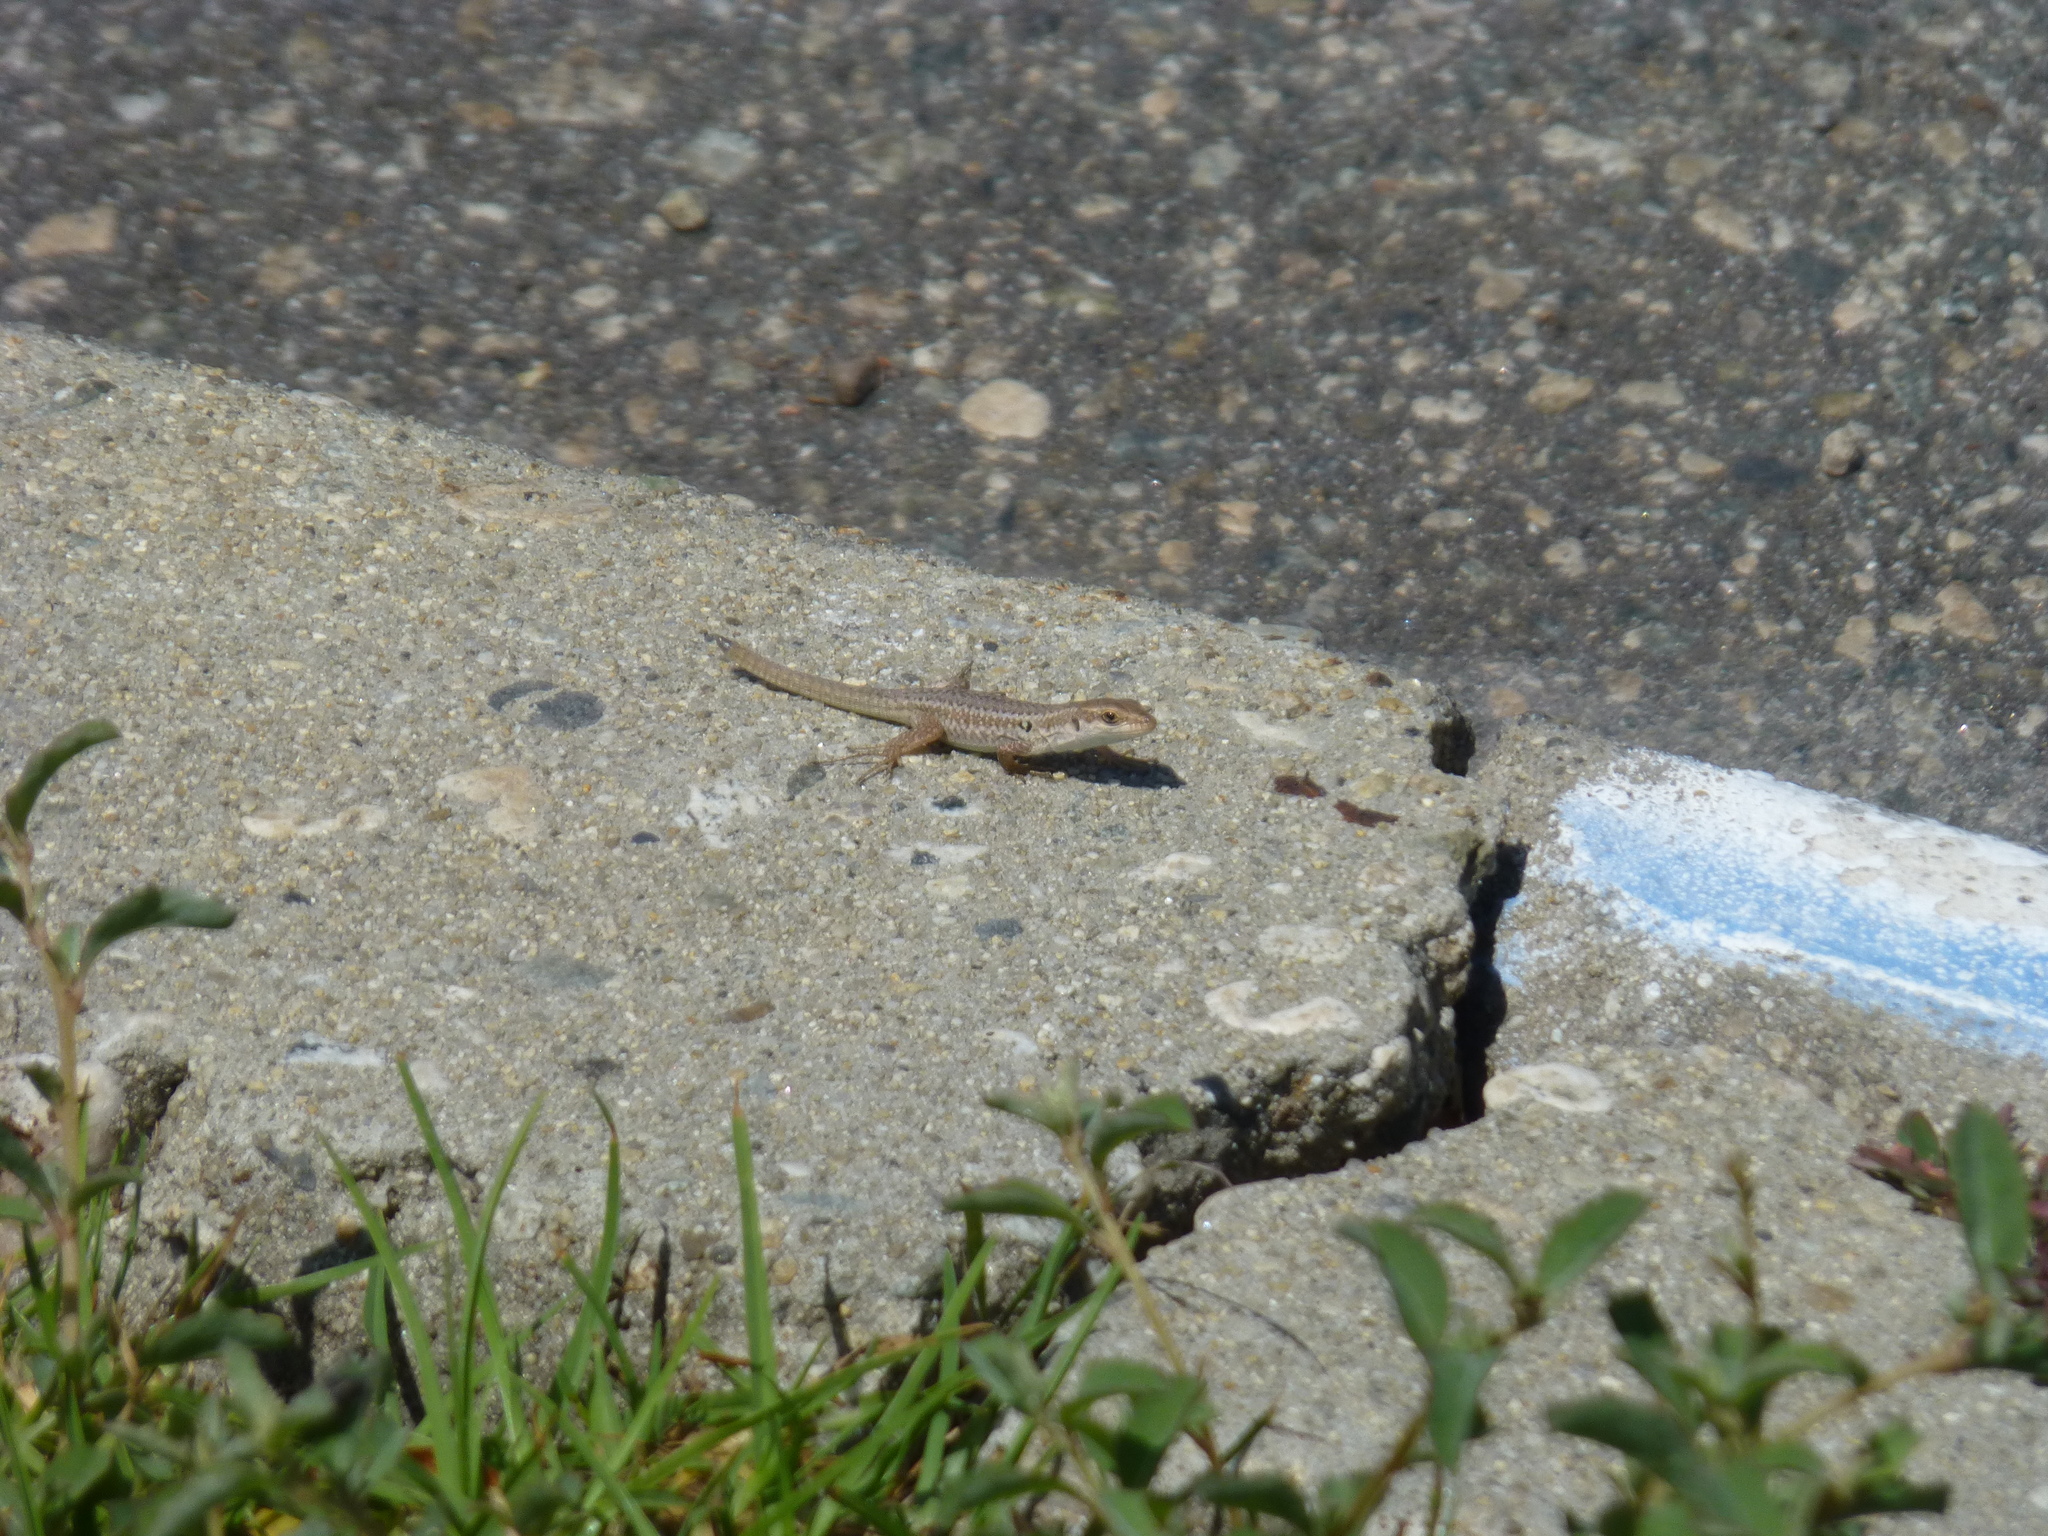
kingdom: Animalia
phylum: Chordata
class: Squamata
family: Lacertidae
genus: Podarcis
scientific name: Podarcis siculus
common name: Italian wall lizard
